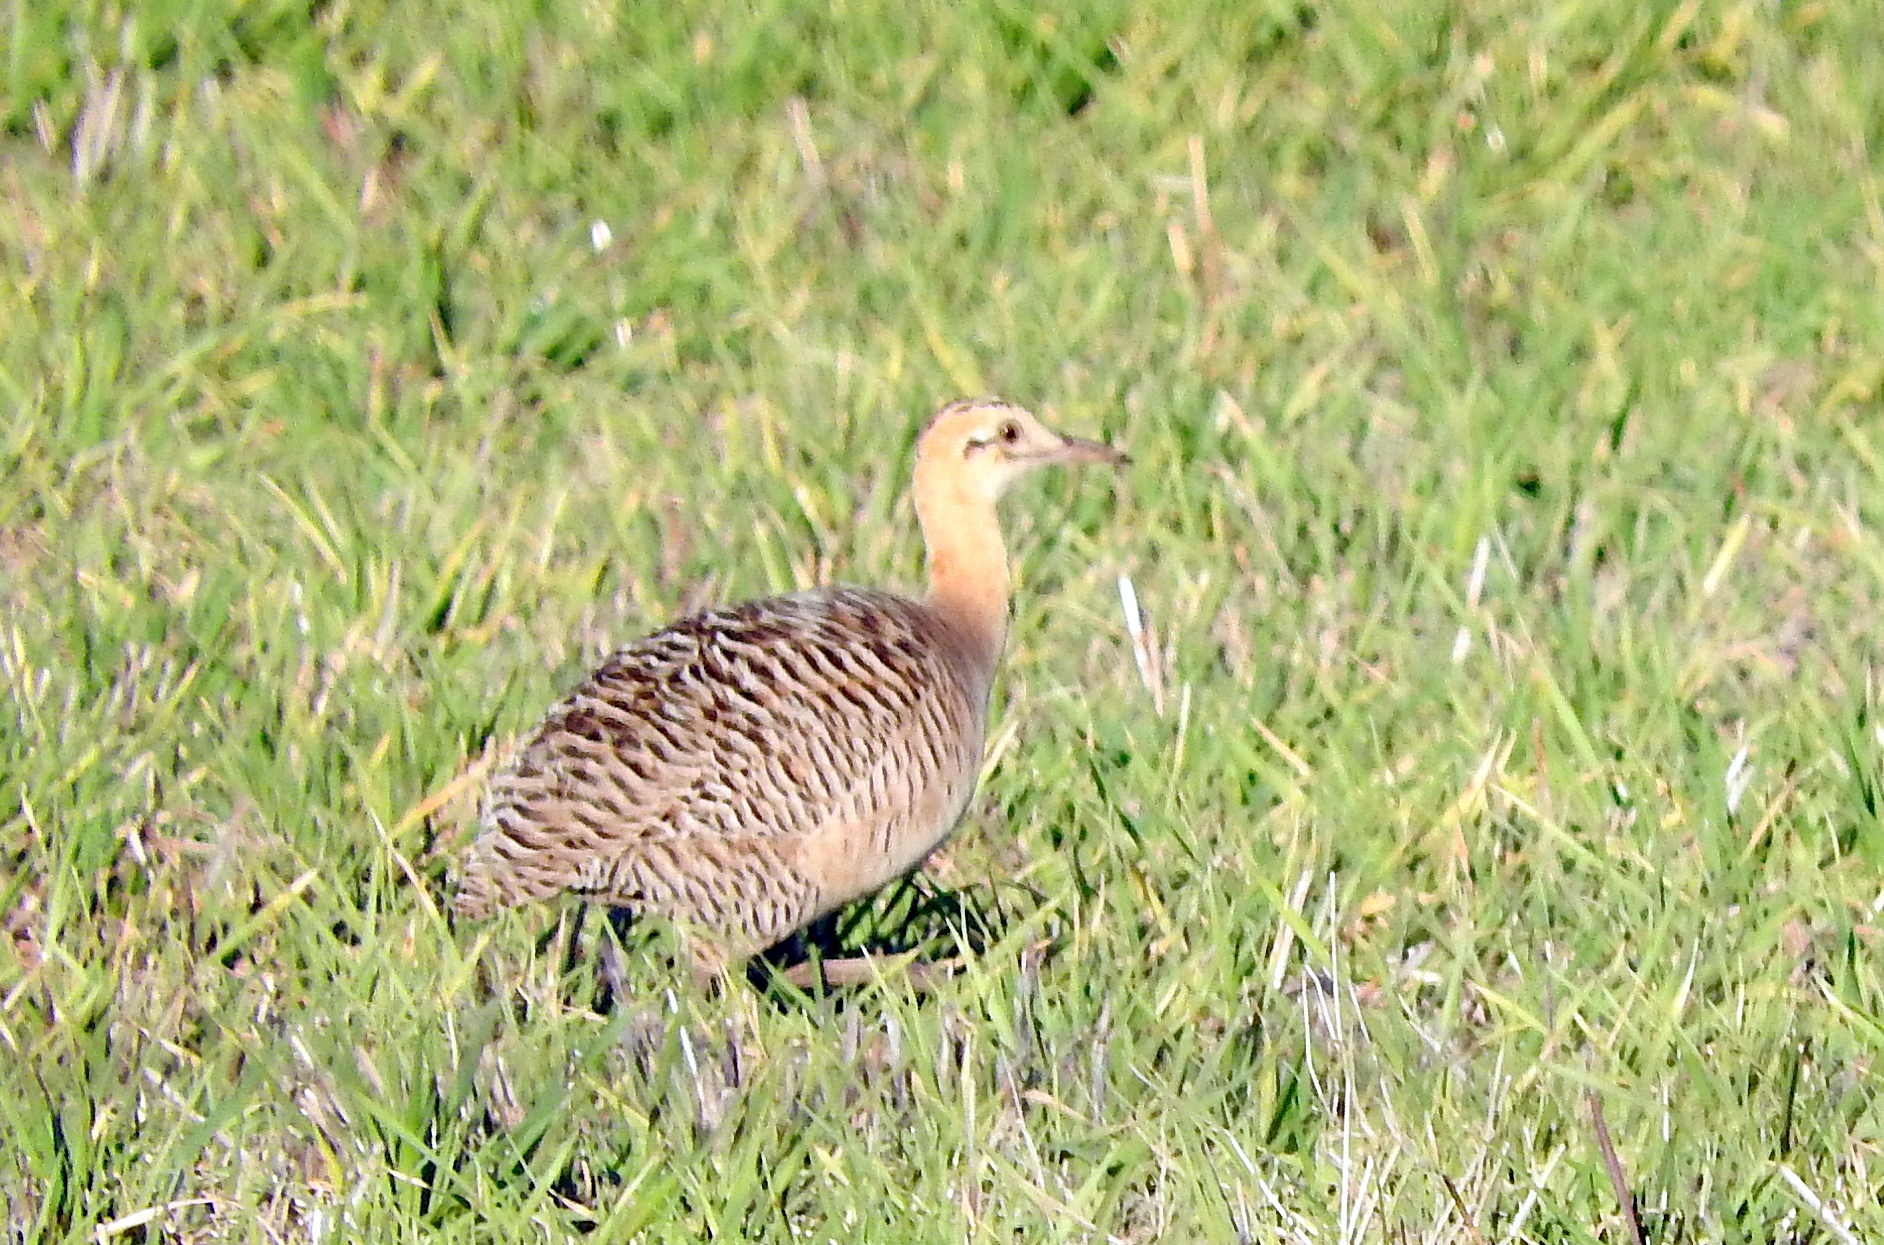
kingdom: Animalia
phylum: Chordata
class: Aves
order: Tinamiformes
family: Tinamidae
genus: Rhynchotus
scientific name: Rhynchotus rufescens
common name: Red-winged tinamou
